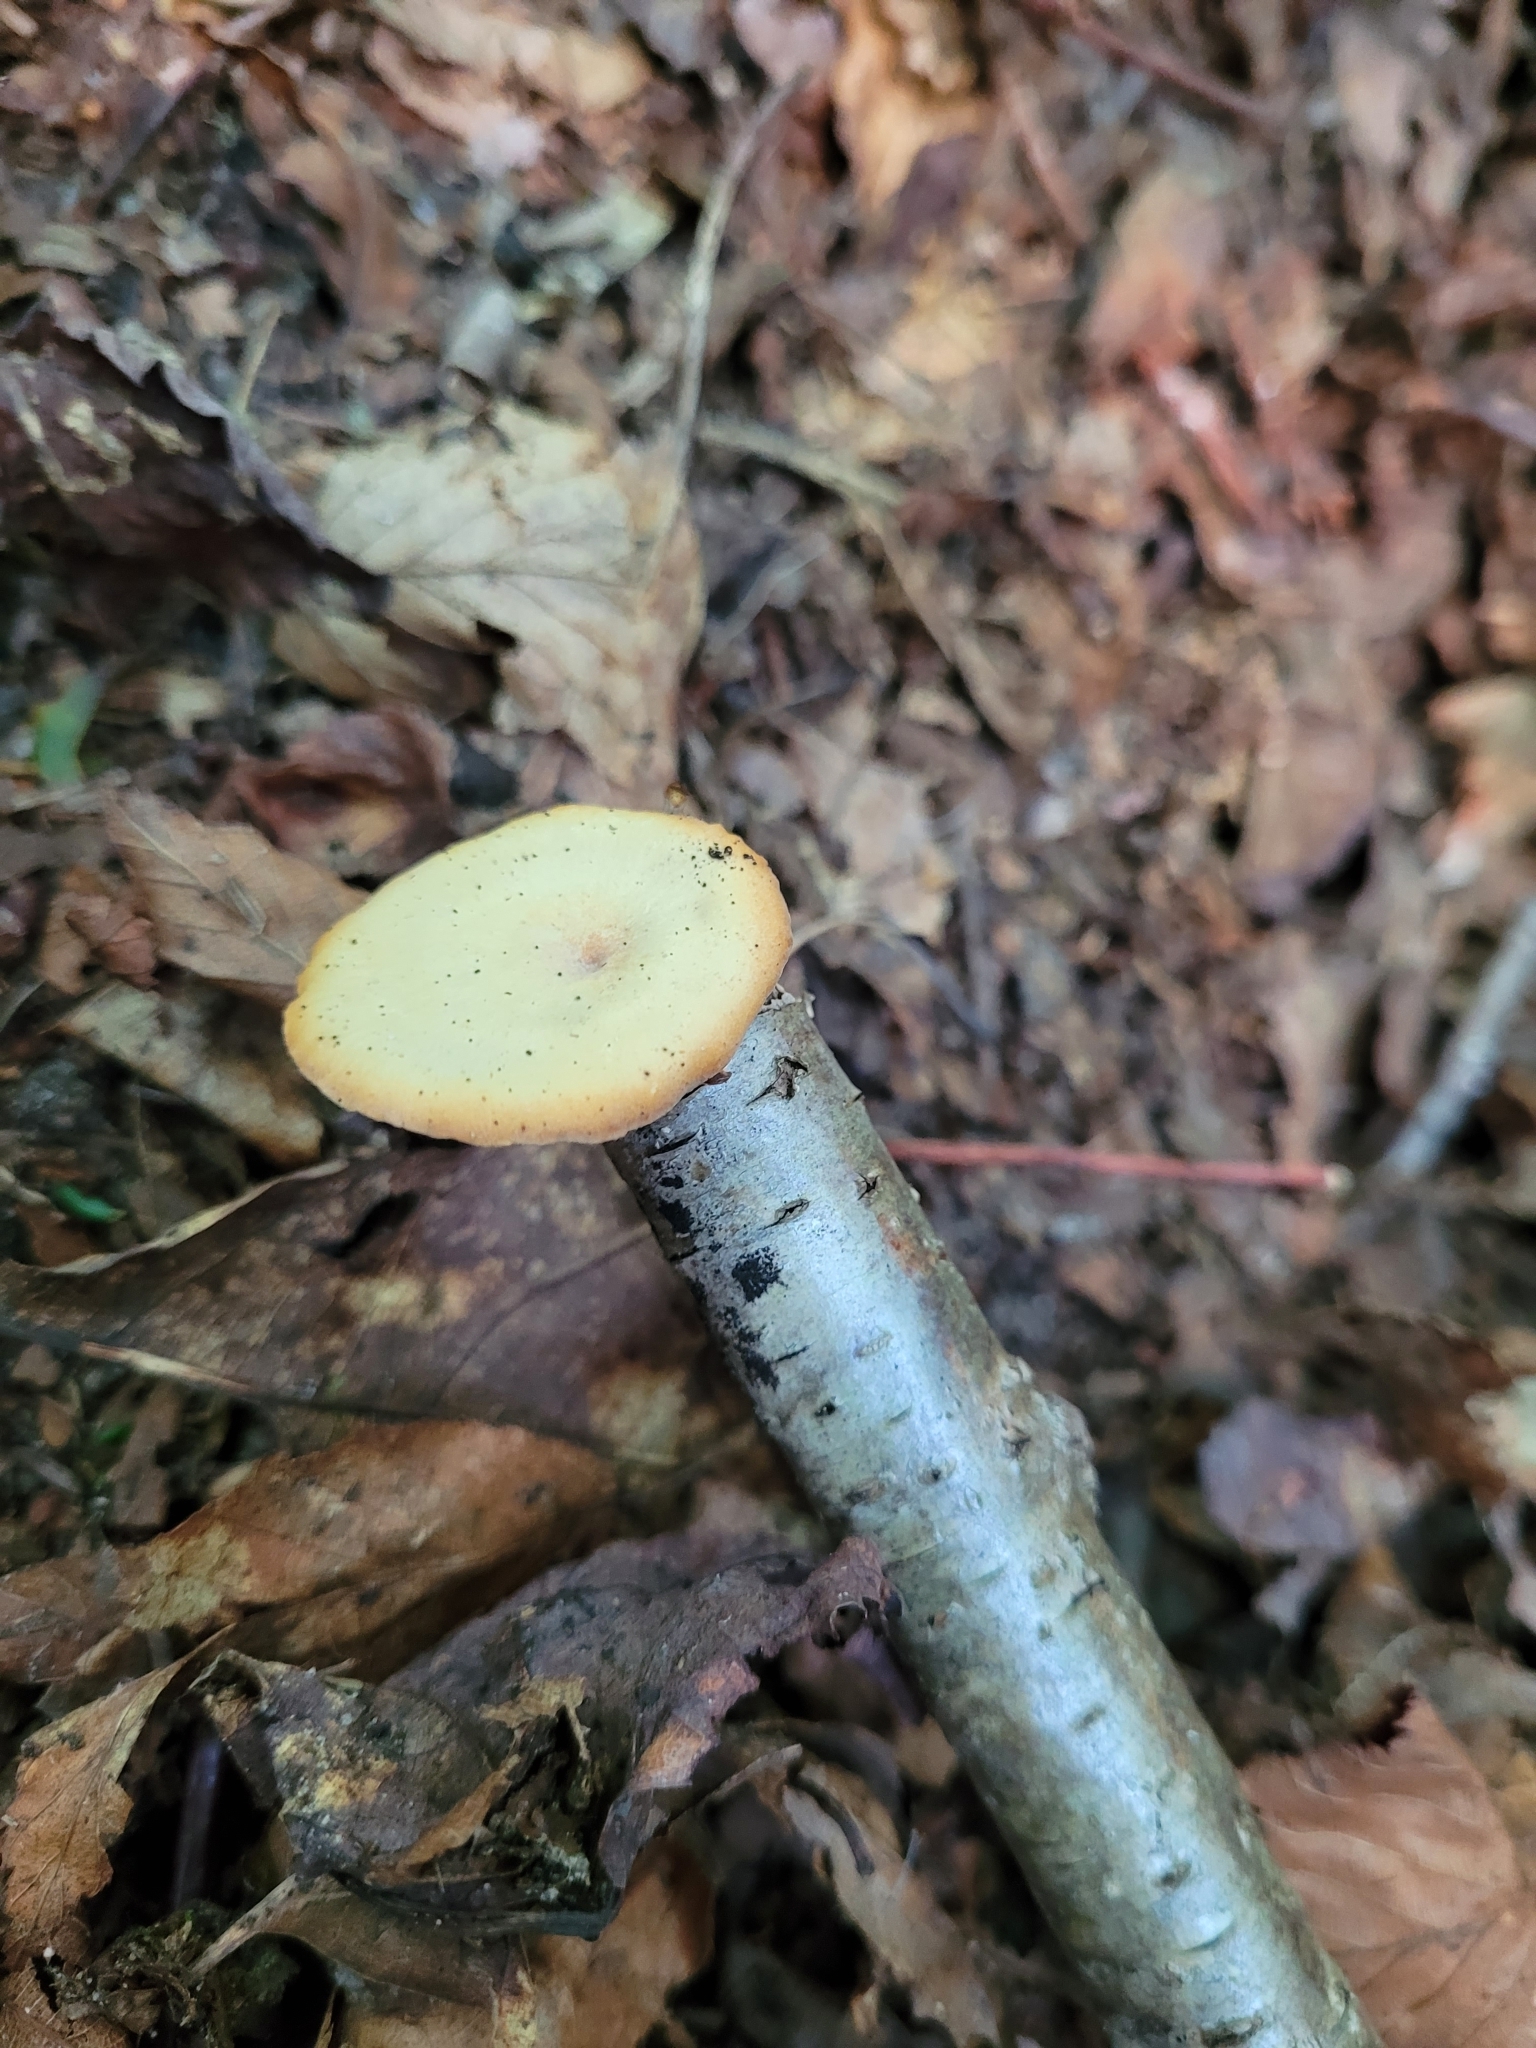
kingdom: Fungi
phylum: Basidiomycota
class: Agaricomycetes
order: Polyporales
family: Polyporaceae
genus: Cerioporus
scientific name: Cerioporus leptocephalus
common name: Blackfoot polypore
